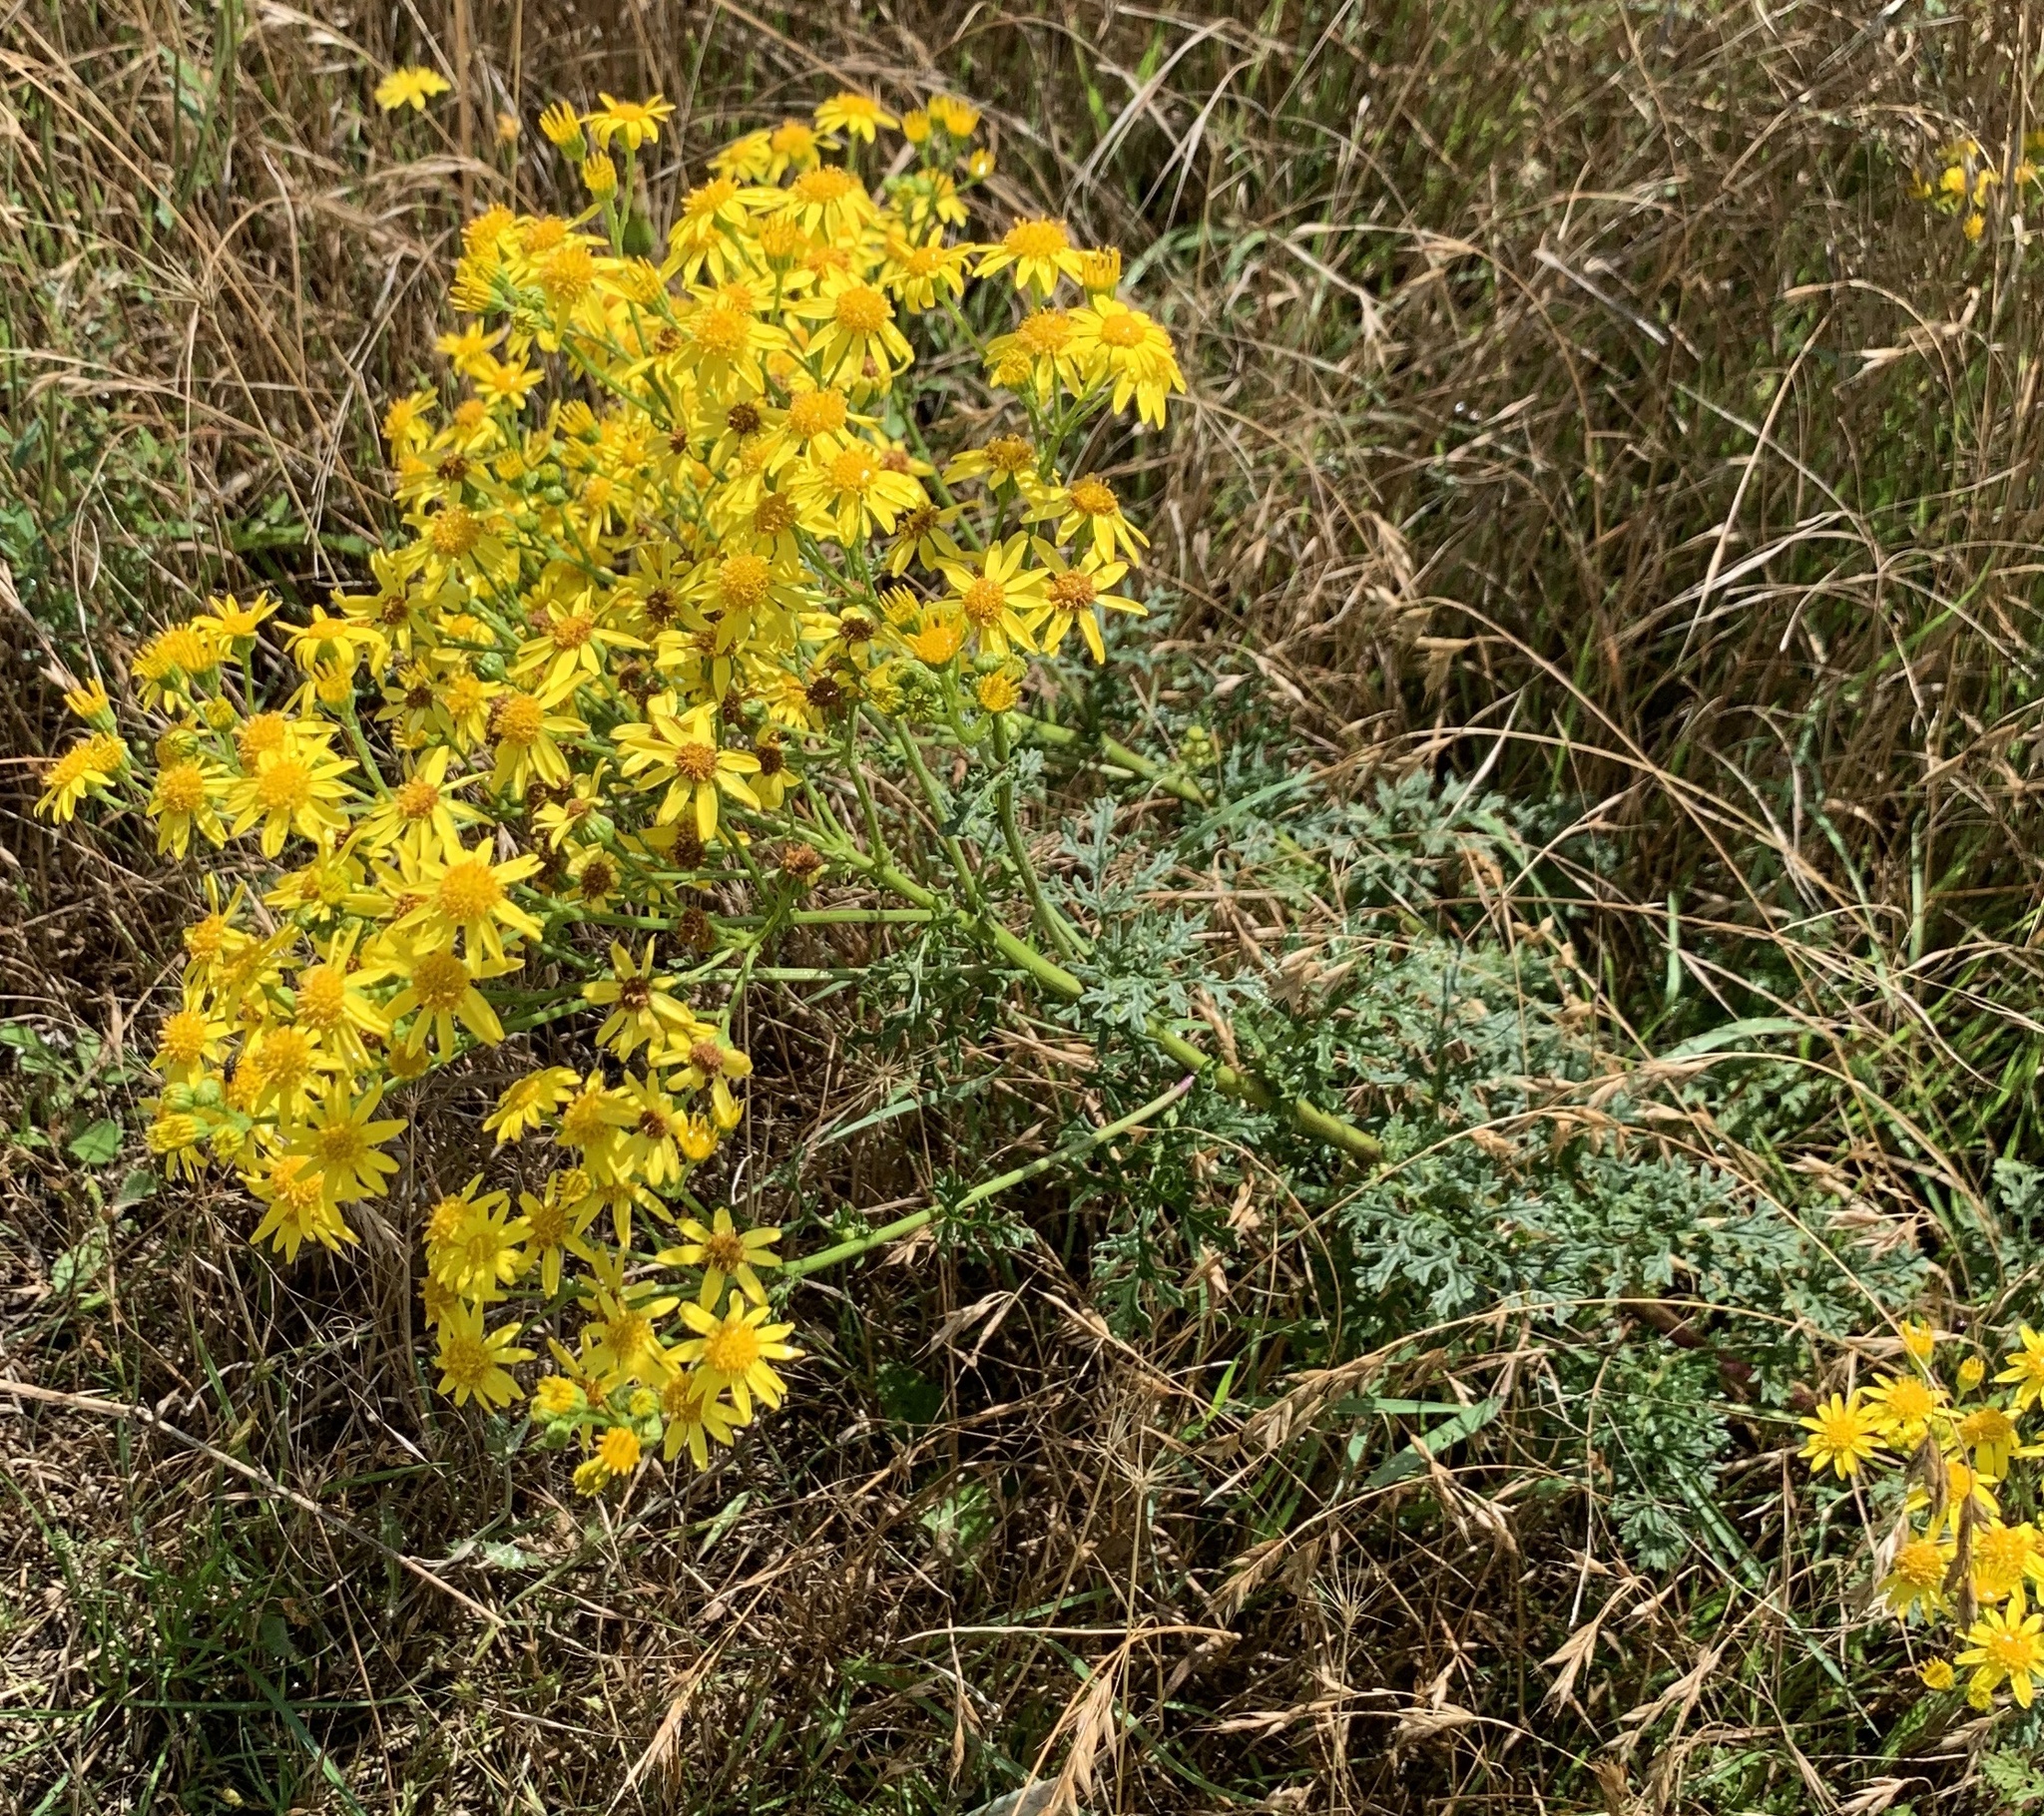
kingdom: Plantae
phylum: Tracheophyta
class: Magnoliopsida
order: Asterales
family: Asteraceae
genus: Jacobaea
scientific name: Jacobaea vulgaris
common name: Stinking willie
